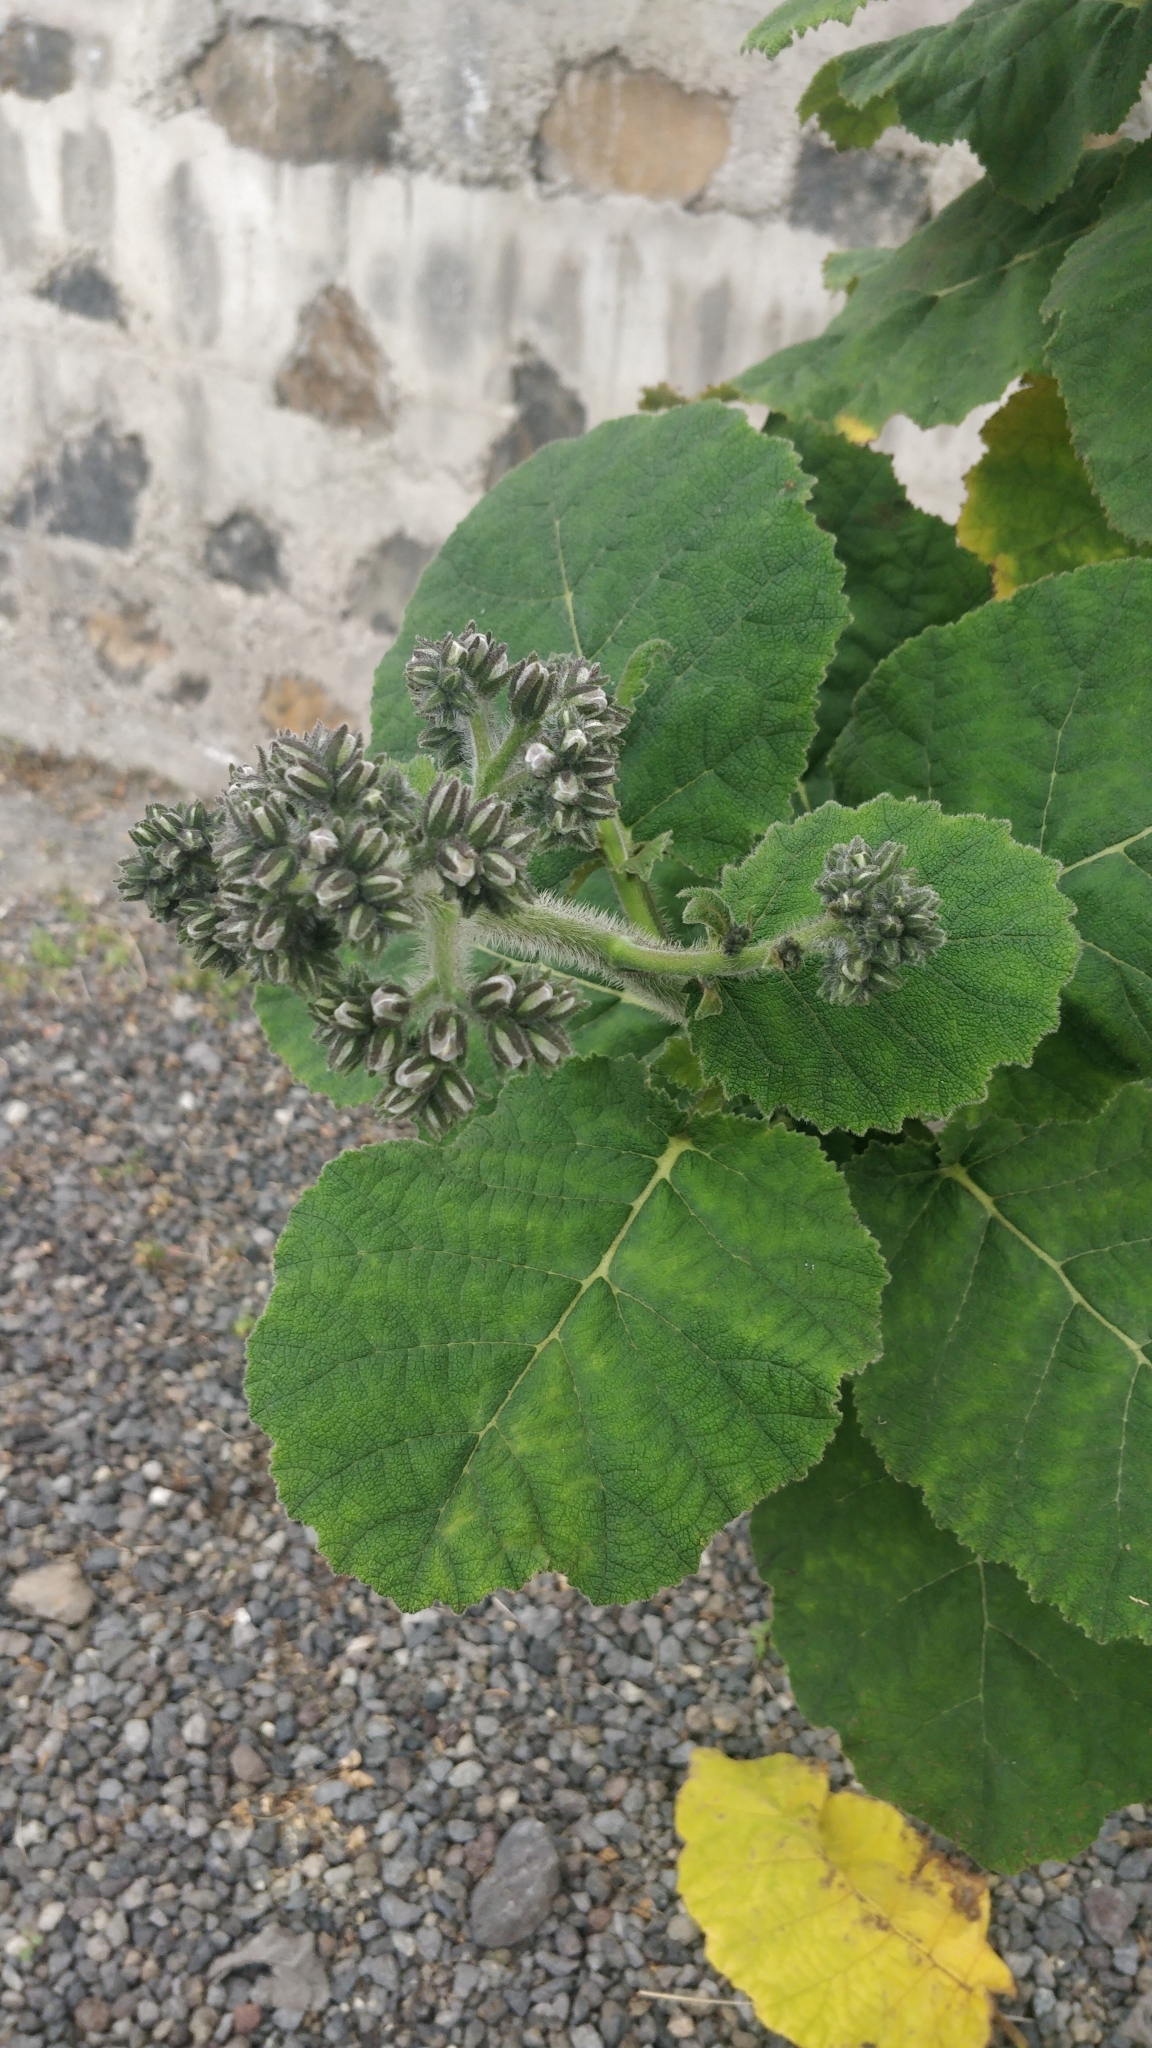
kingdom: Plantae
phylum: Tracheophyta
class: Magnoliopsida
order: Boraginales
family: Namaceae
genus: Wigandia
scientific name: Wigandia urens
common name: Caracus wigandia
